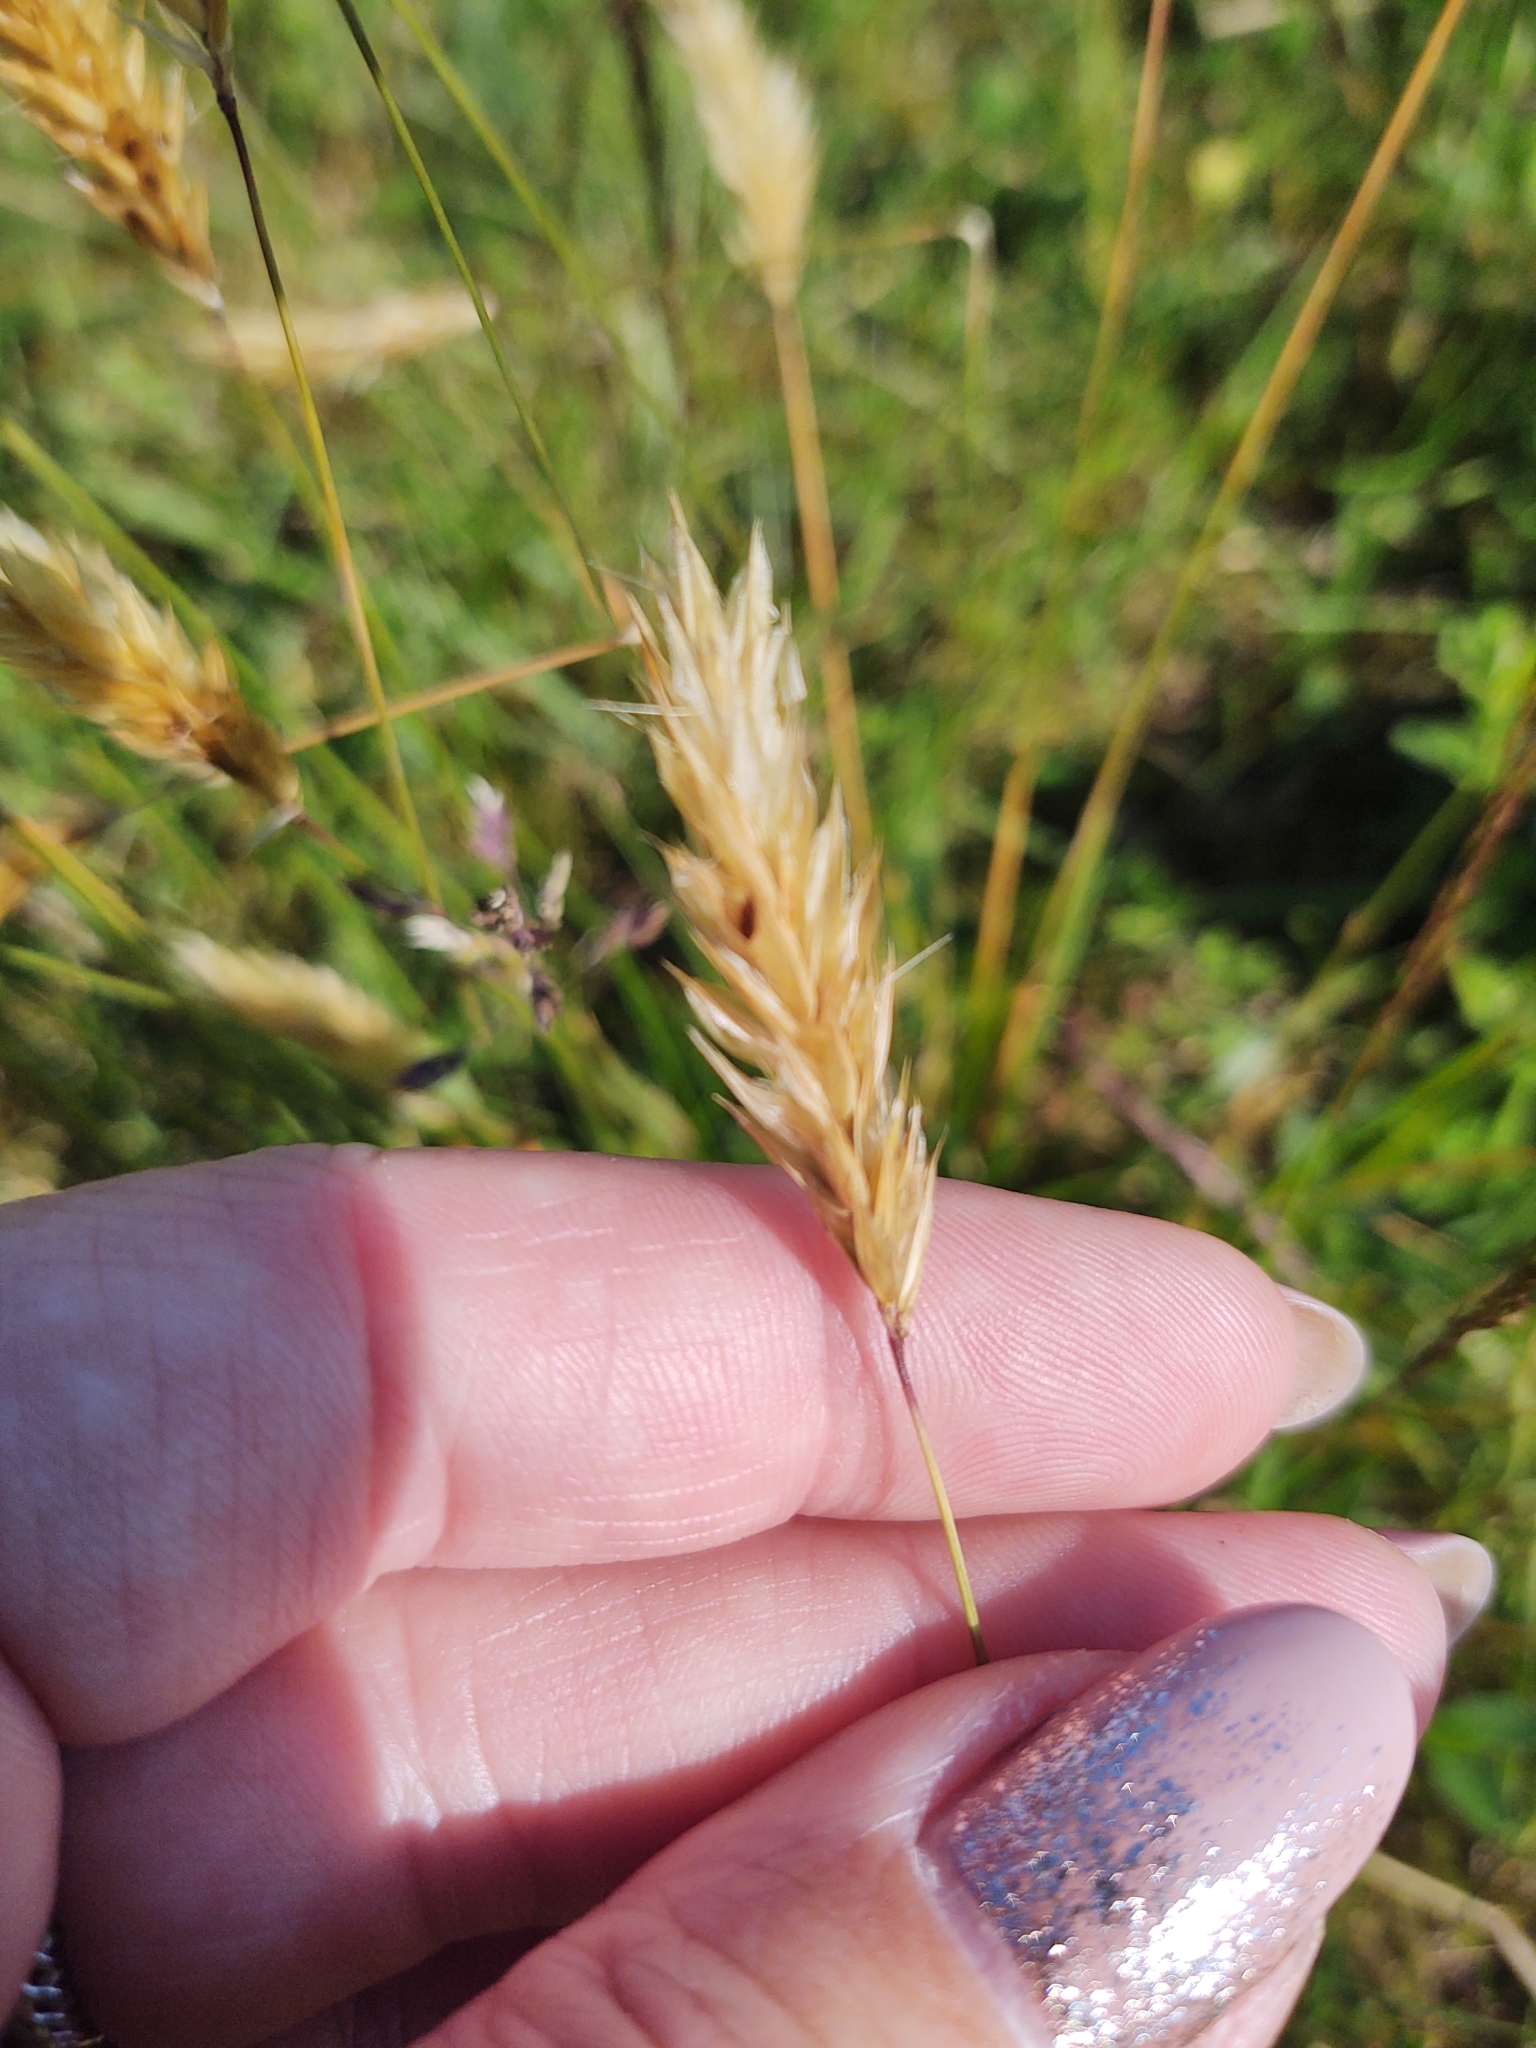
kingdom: Plantae
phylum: Tracheophyta
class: Liliopsida
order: Poales
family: Poaceae
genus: Anthoxanthum
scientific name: Anthoxanthum odoratum
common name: Sweet vernalgrass
